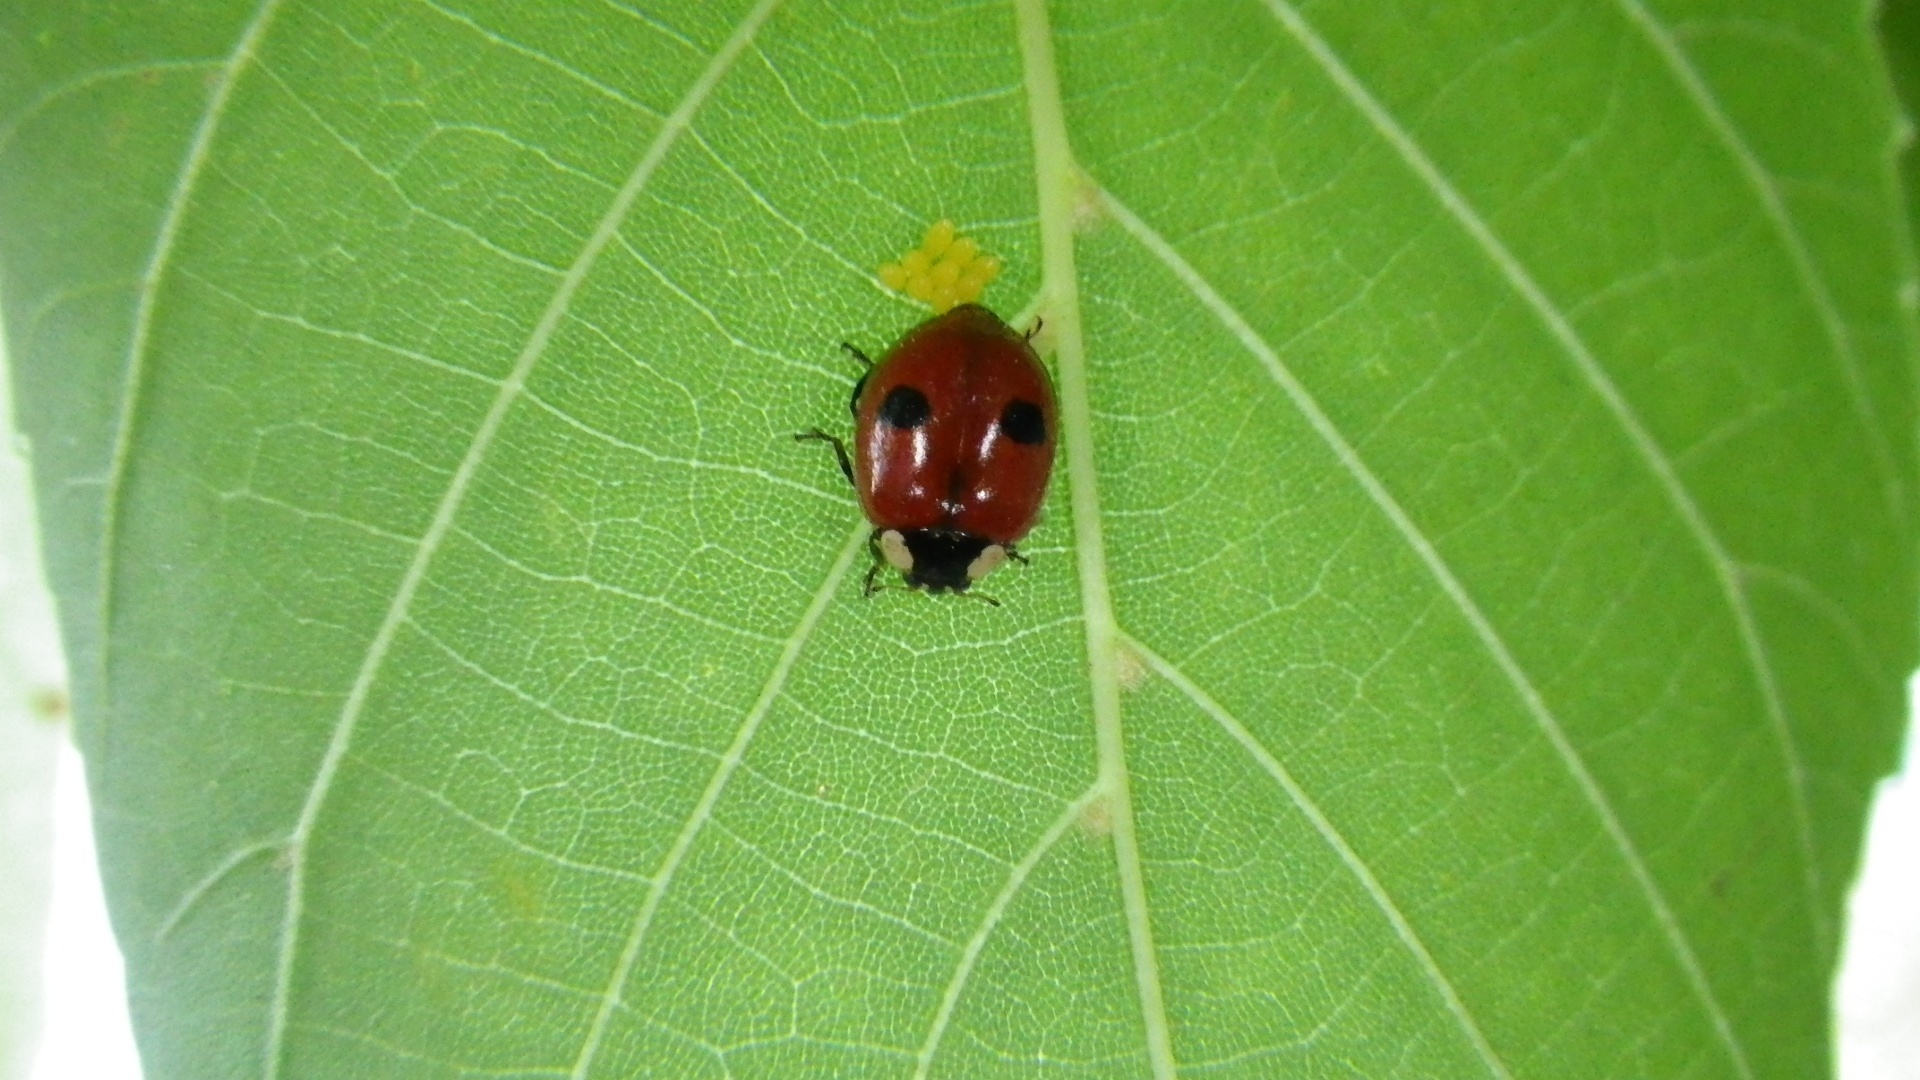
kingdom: Animalia
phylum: Arthropoda
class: Insecta
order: Coleoptera
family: Coccinellidae
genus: Adalia
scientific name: Adalia bipunctata
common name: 2-spot ladybird
